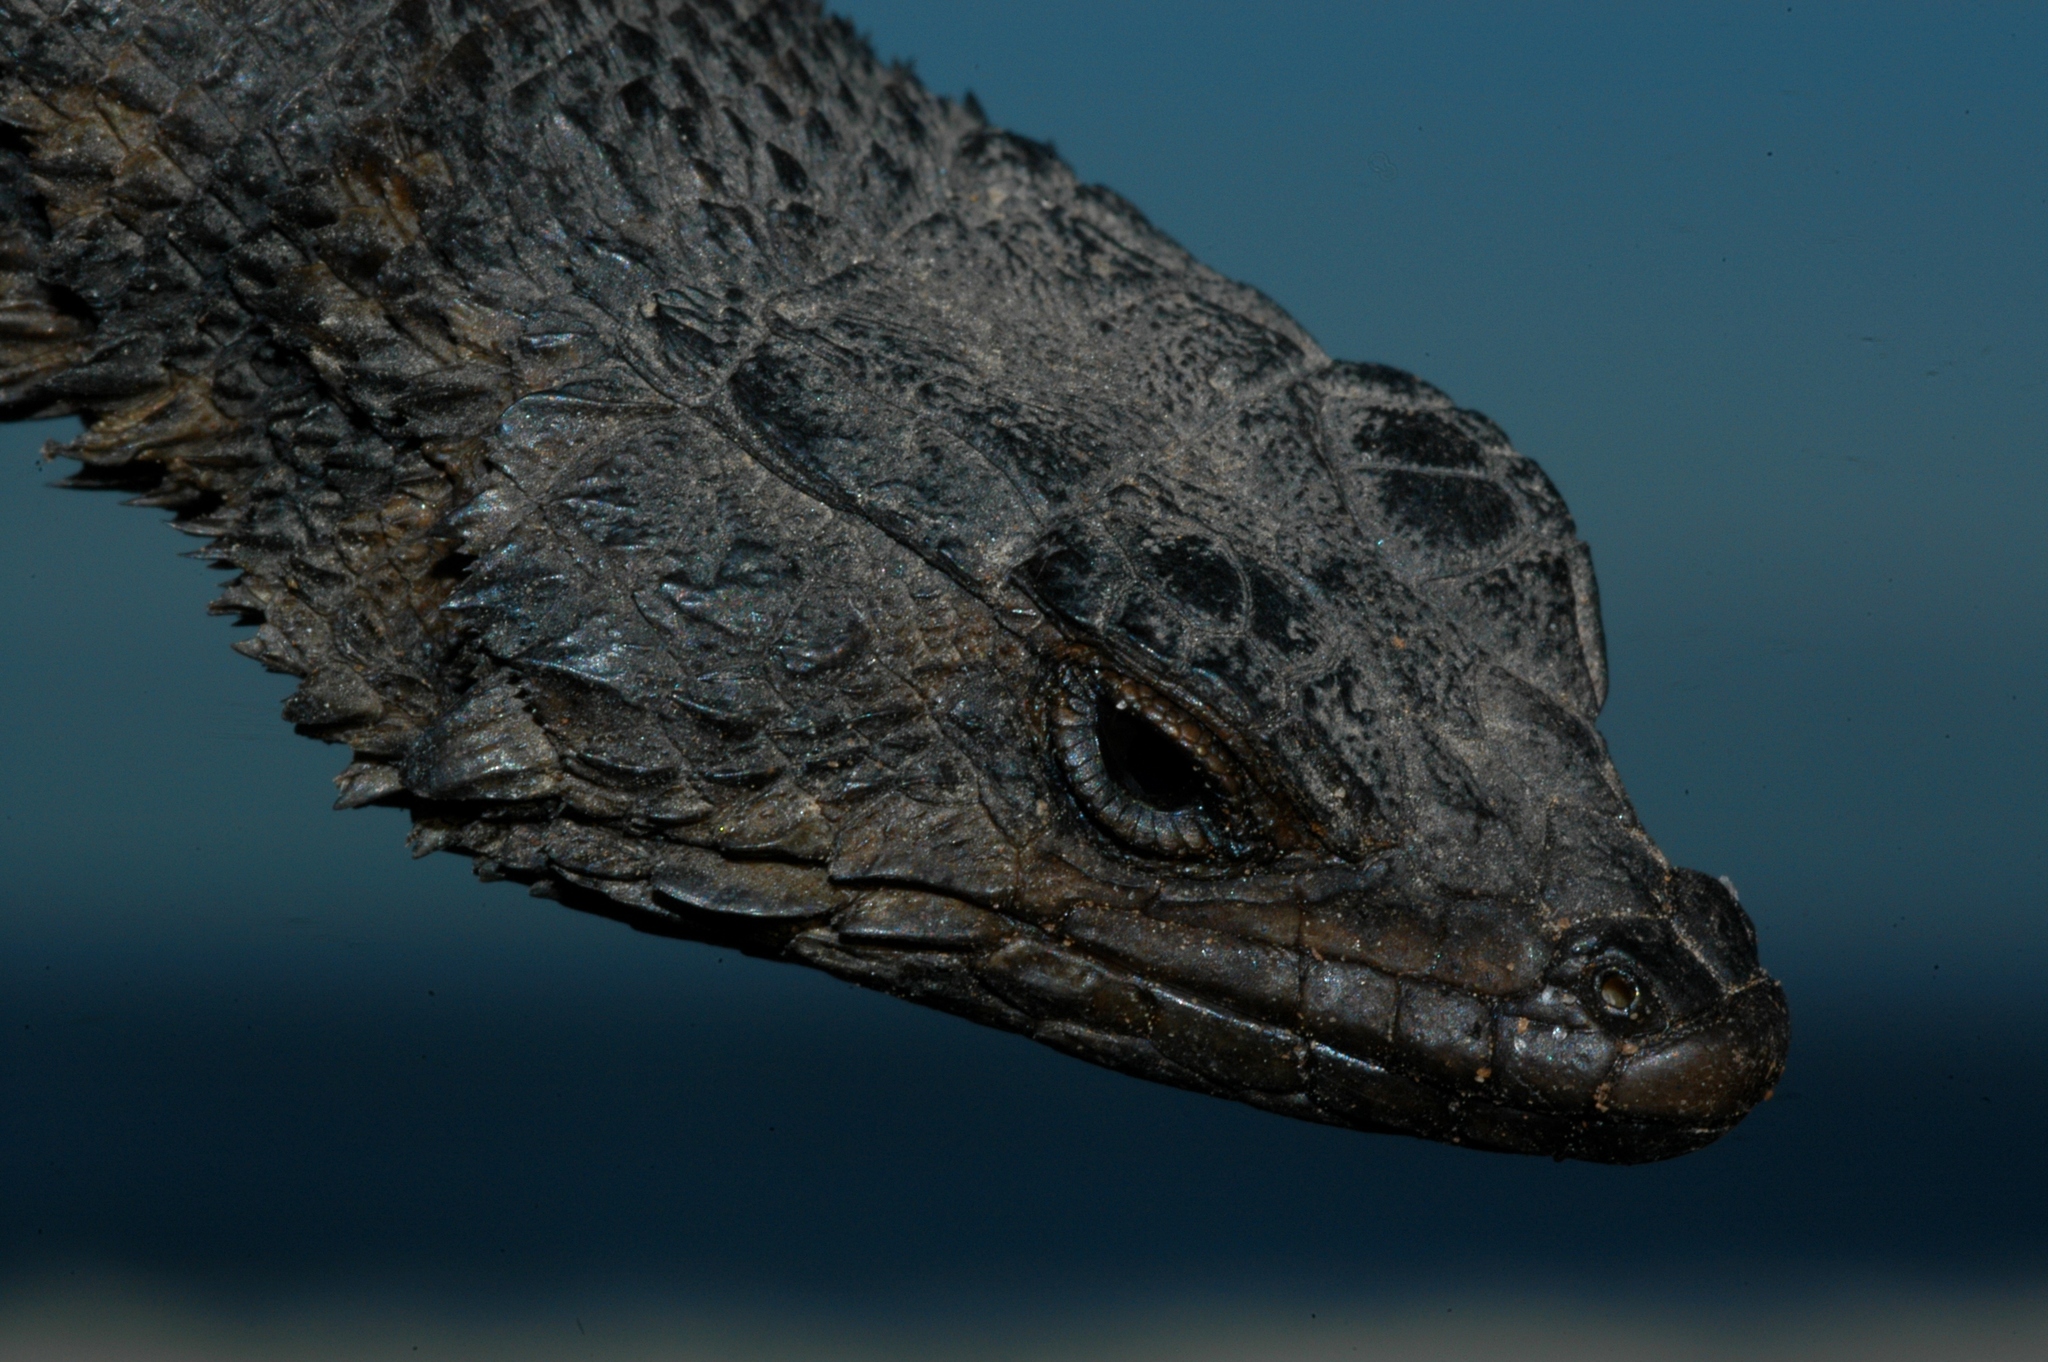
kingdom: Animalia
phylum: Chordata
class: Squamata
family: Cordylidae
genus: Karusasaurus
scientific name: Karusasaurus polyzonus
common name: Karoo girdled lizard
